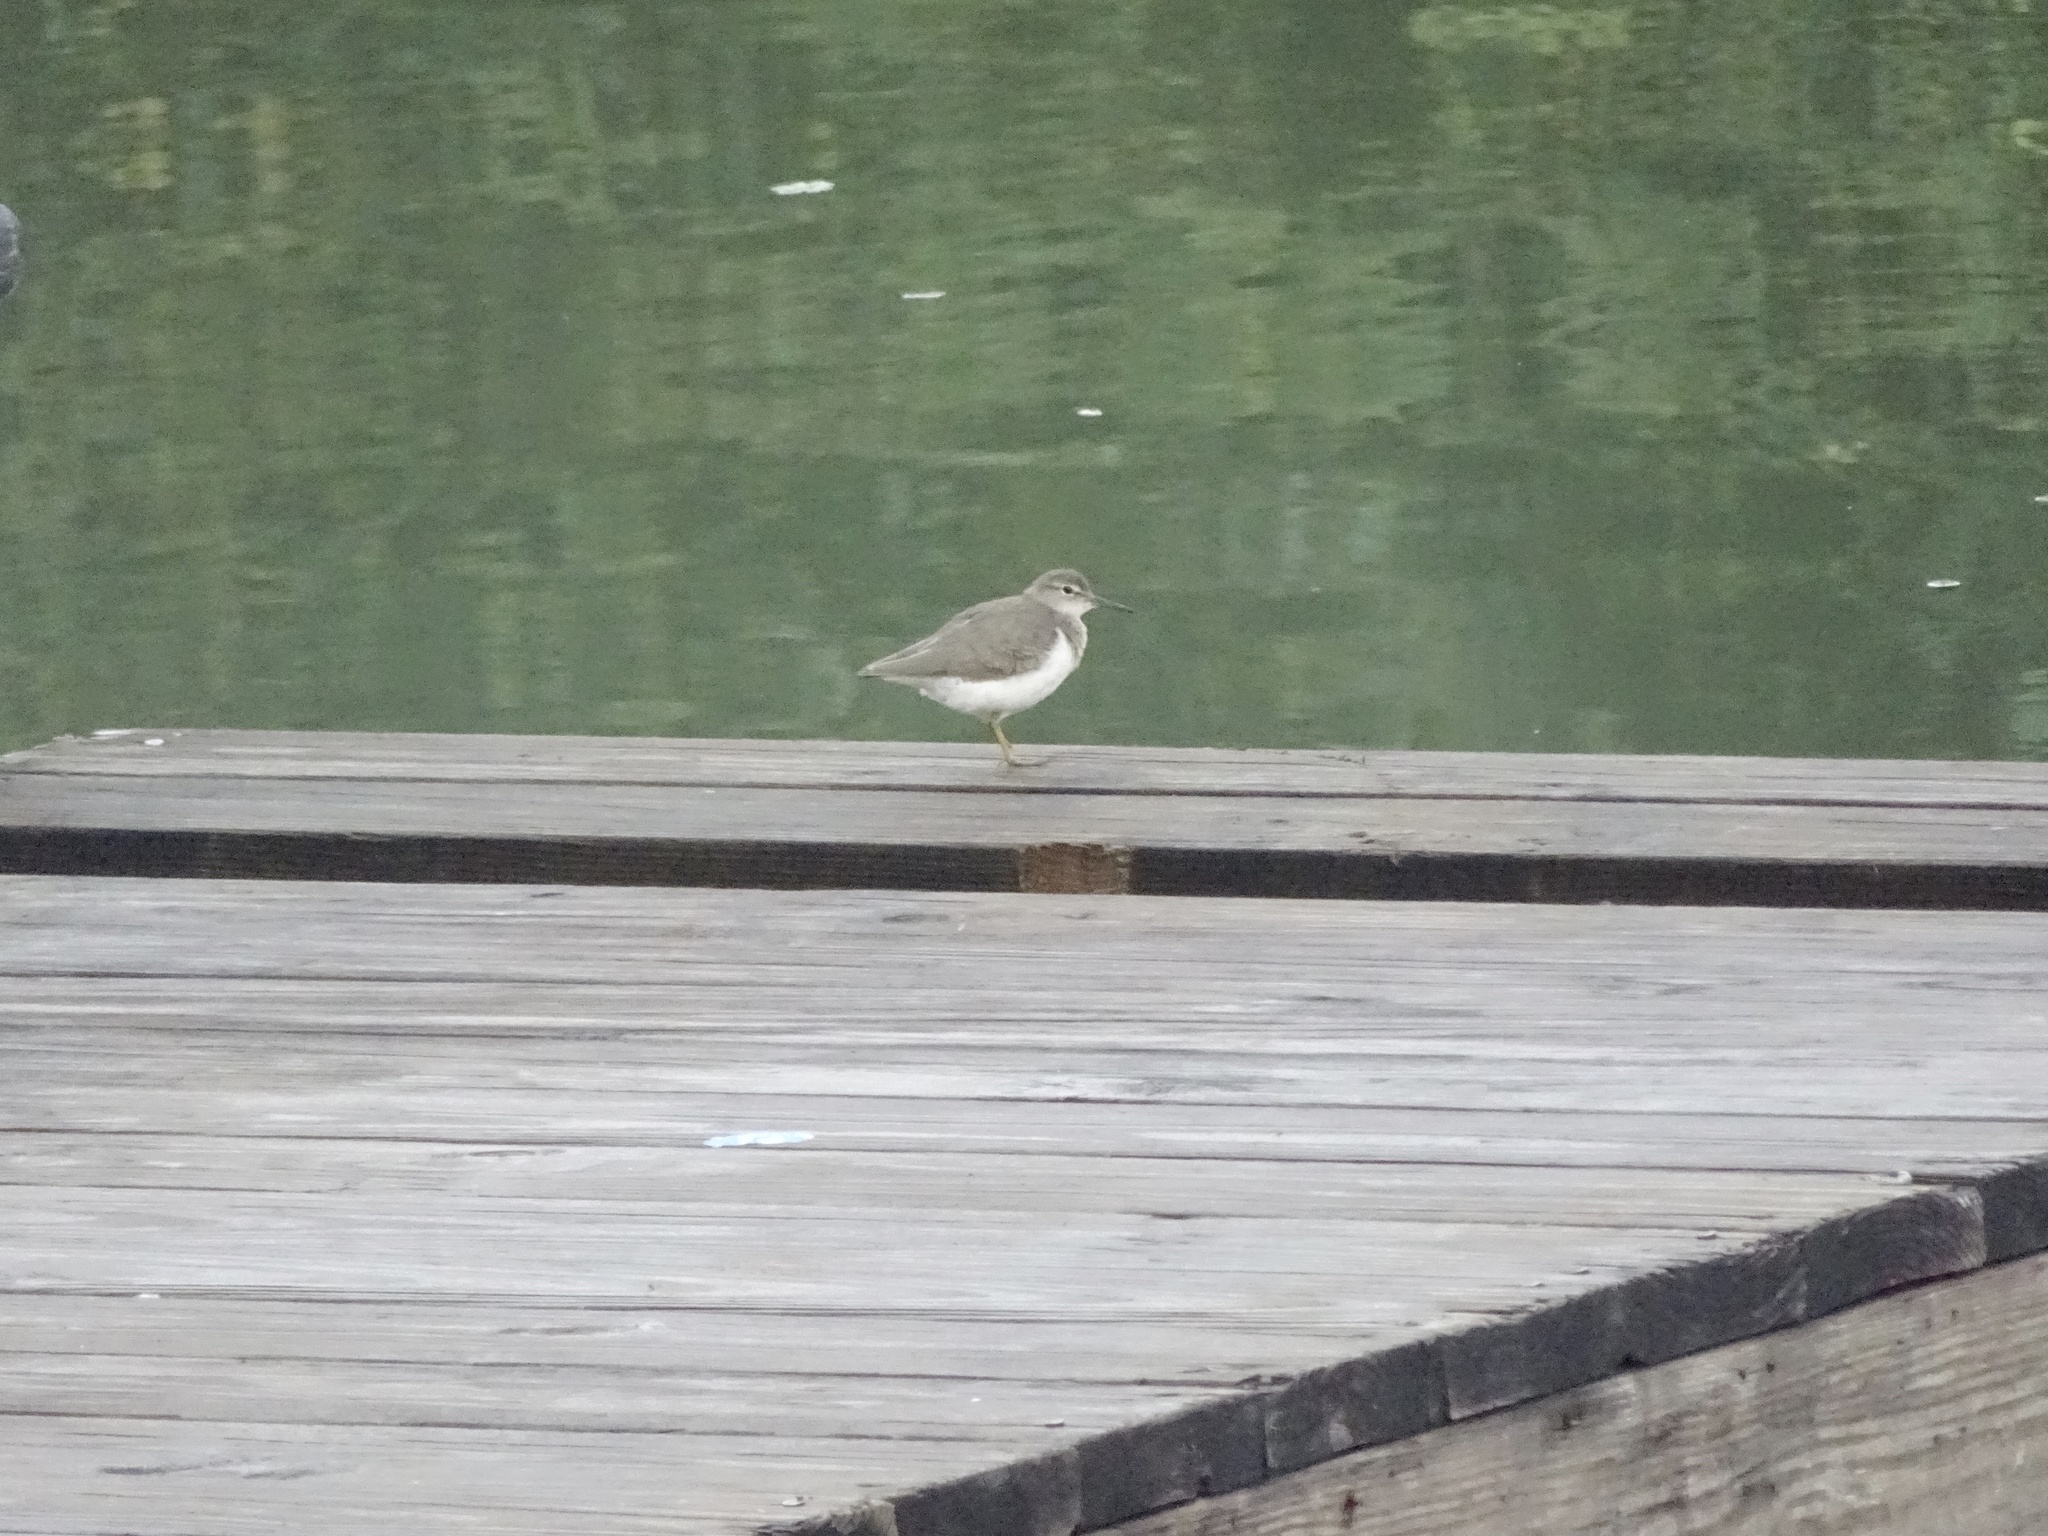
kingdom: Animalia
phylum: Chordata
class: Aves
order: Charadriiformes
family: Scolopacidae
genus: Actitis
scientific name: Actitis macularius
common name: Spotted sandpiper
